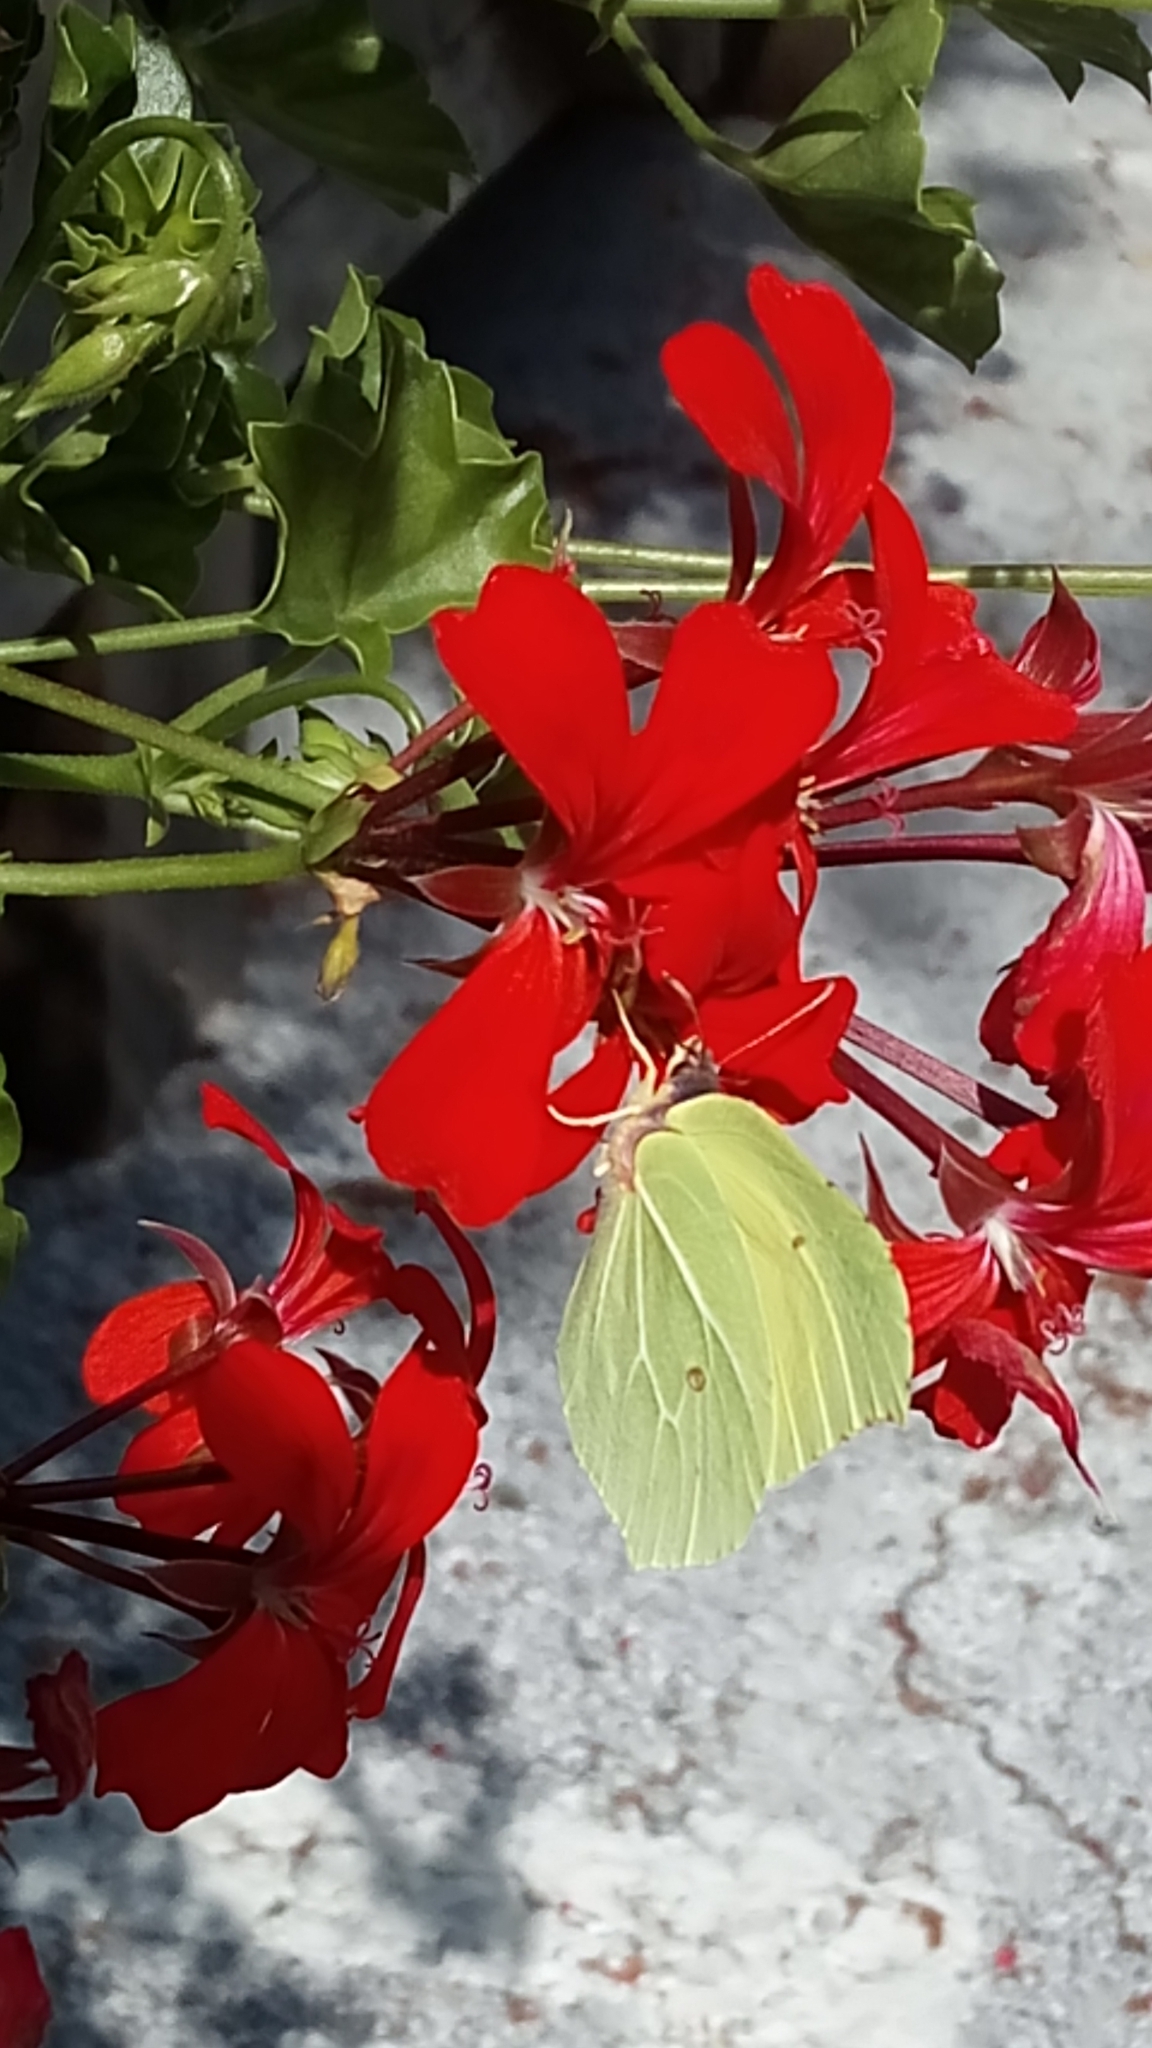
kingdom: Animalia
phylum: Arthropoda
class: Insecta
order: Lepidoptera
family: Pieridae
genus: Gonepteryx
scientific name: Gonepteryx rhamni
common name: Brimstone
